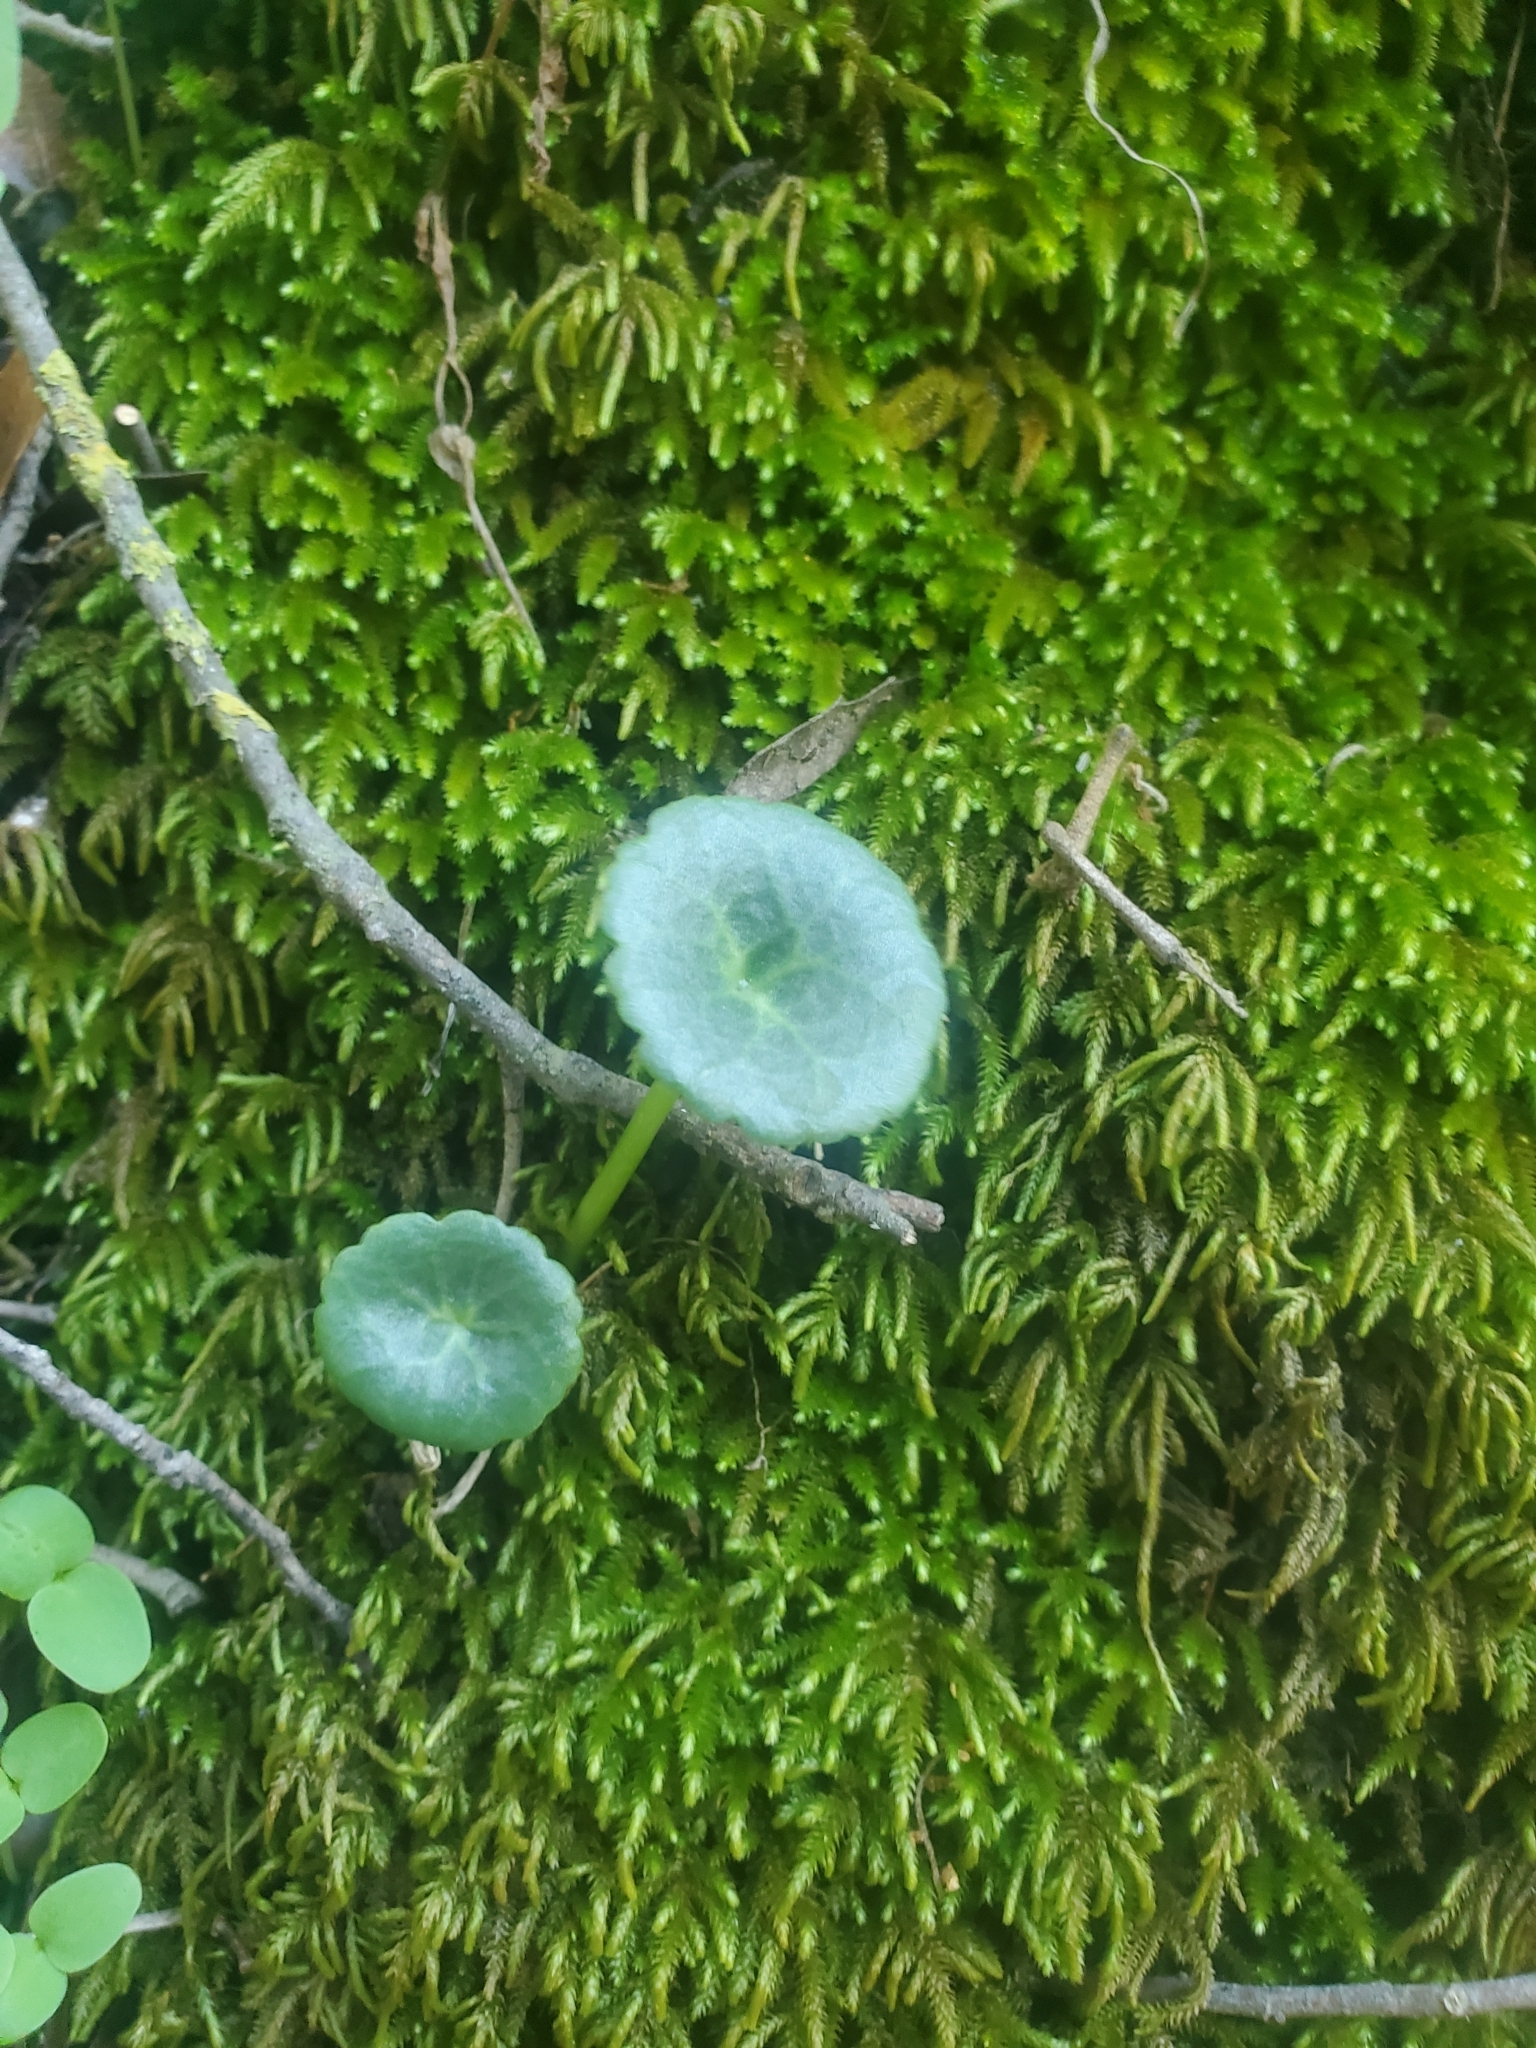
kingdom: Plantae
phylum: Tracheophyta
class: Magnoliopsida
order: Saxifragales
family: Crassulaceae
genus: Umbilicus
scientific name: Umbilicus horizontalis
